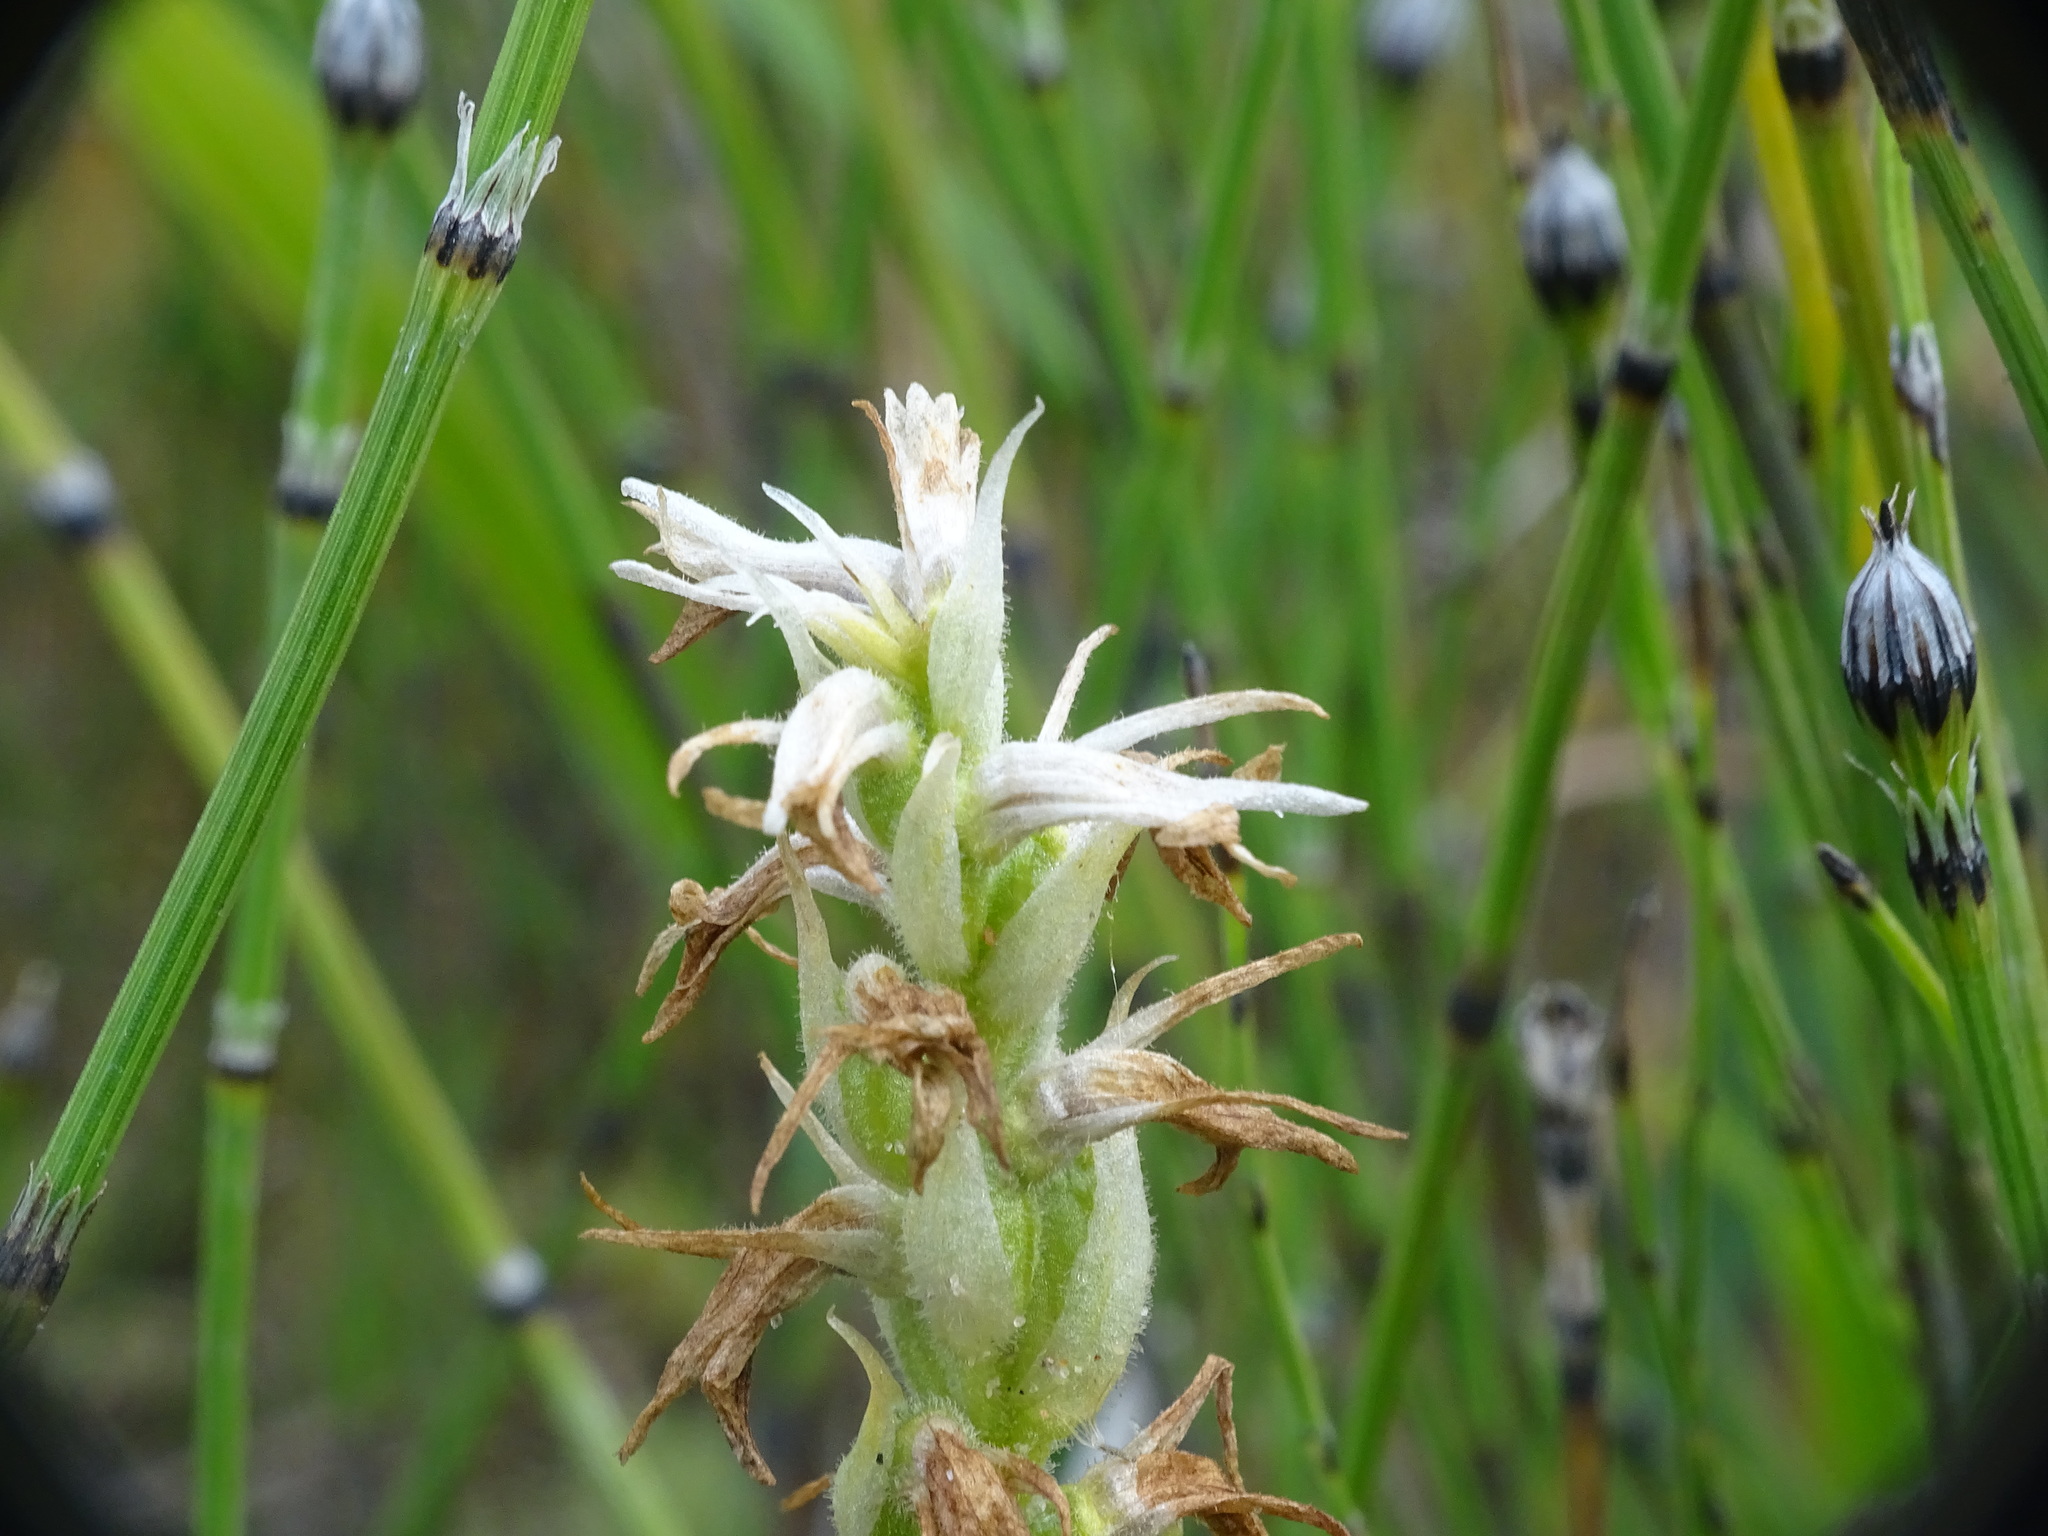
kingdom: Plantae
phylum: Tracheophyta
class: Liliopsida
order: Asparagales
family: Orchidaceae
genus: Spiranthes
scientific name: Spiranthes magnicamporum
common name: Great plains ladies'-tresses
